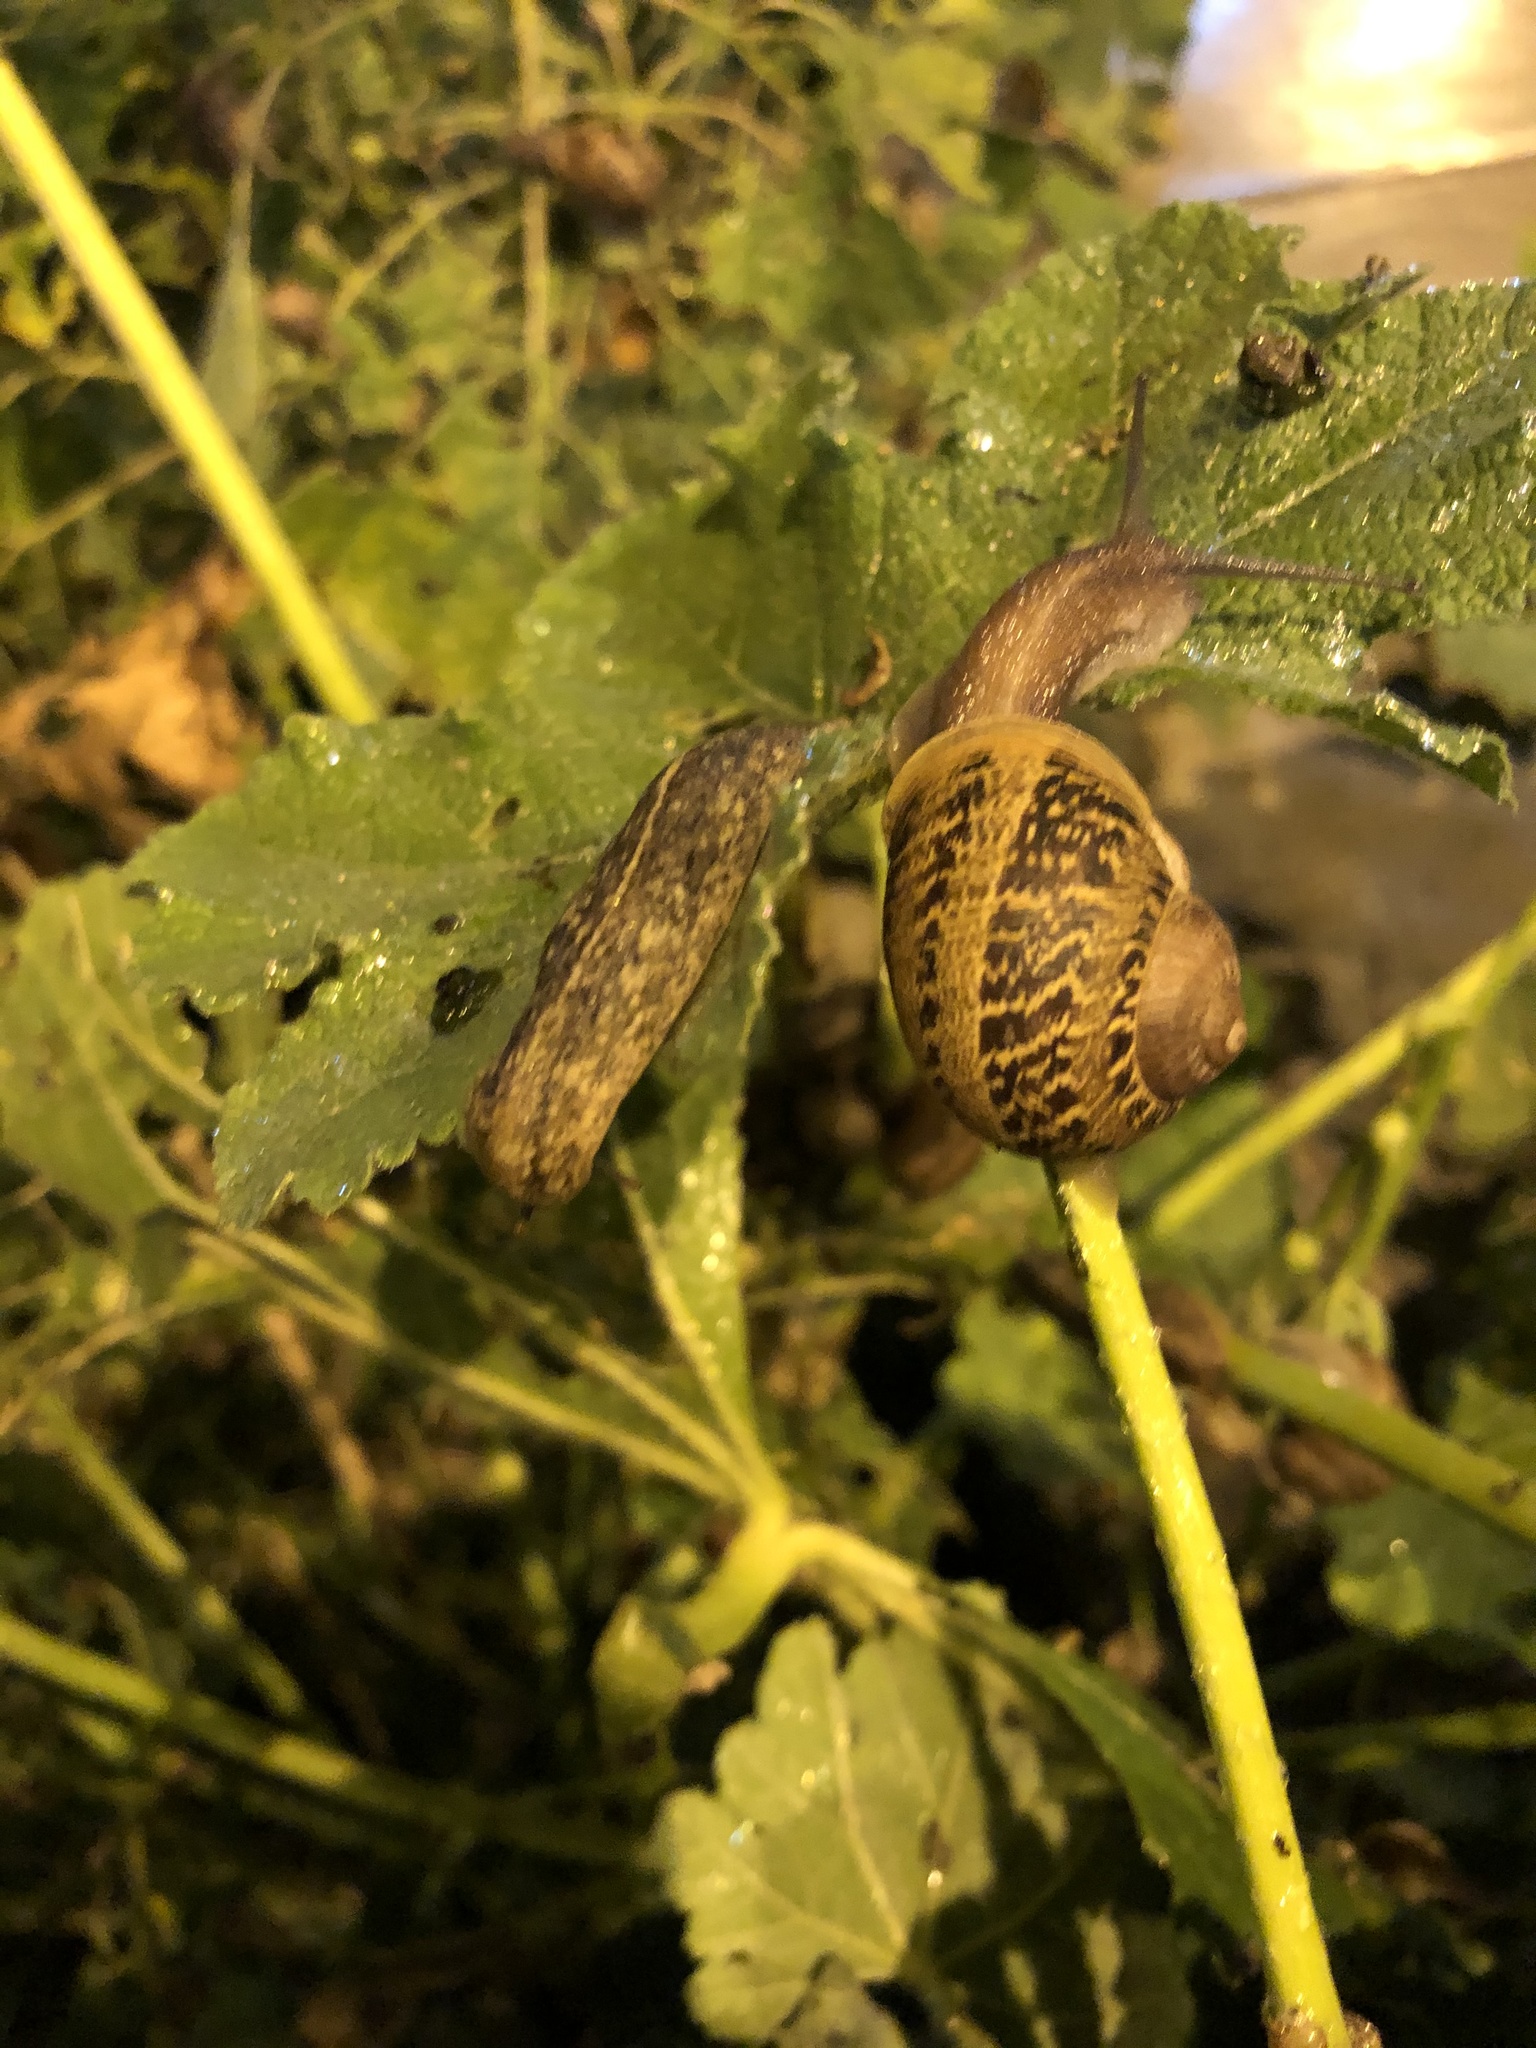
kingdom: Animalia
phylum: Mollusca
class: Gastropoda
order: Systellommatophora
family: Veronicellidae
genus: Heterovaginina
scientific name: Heterovaginina limayana
